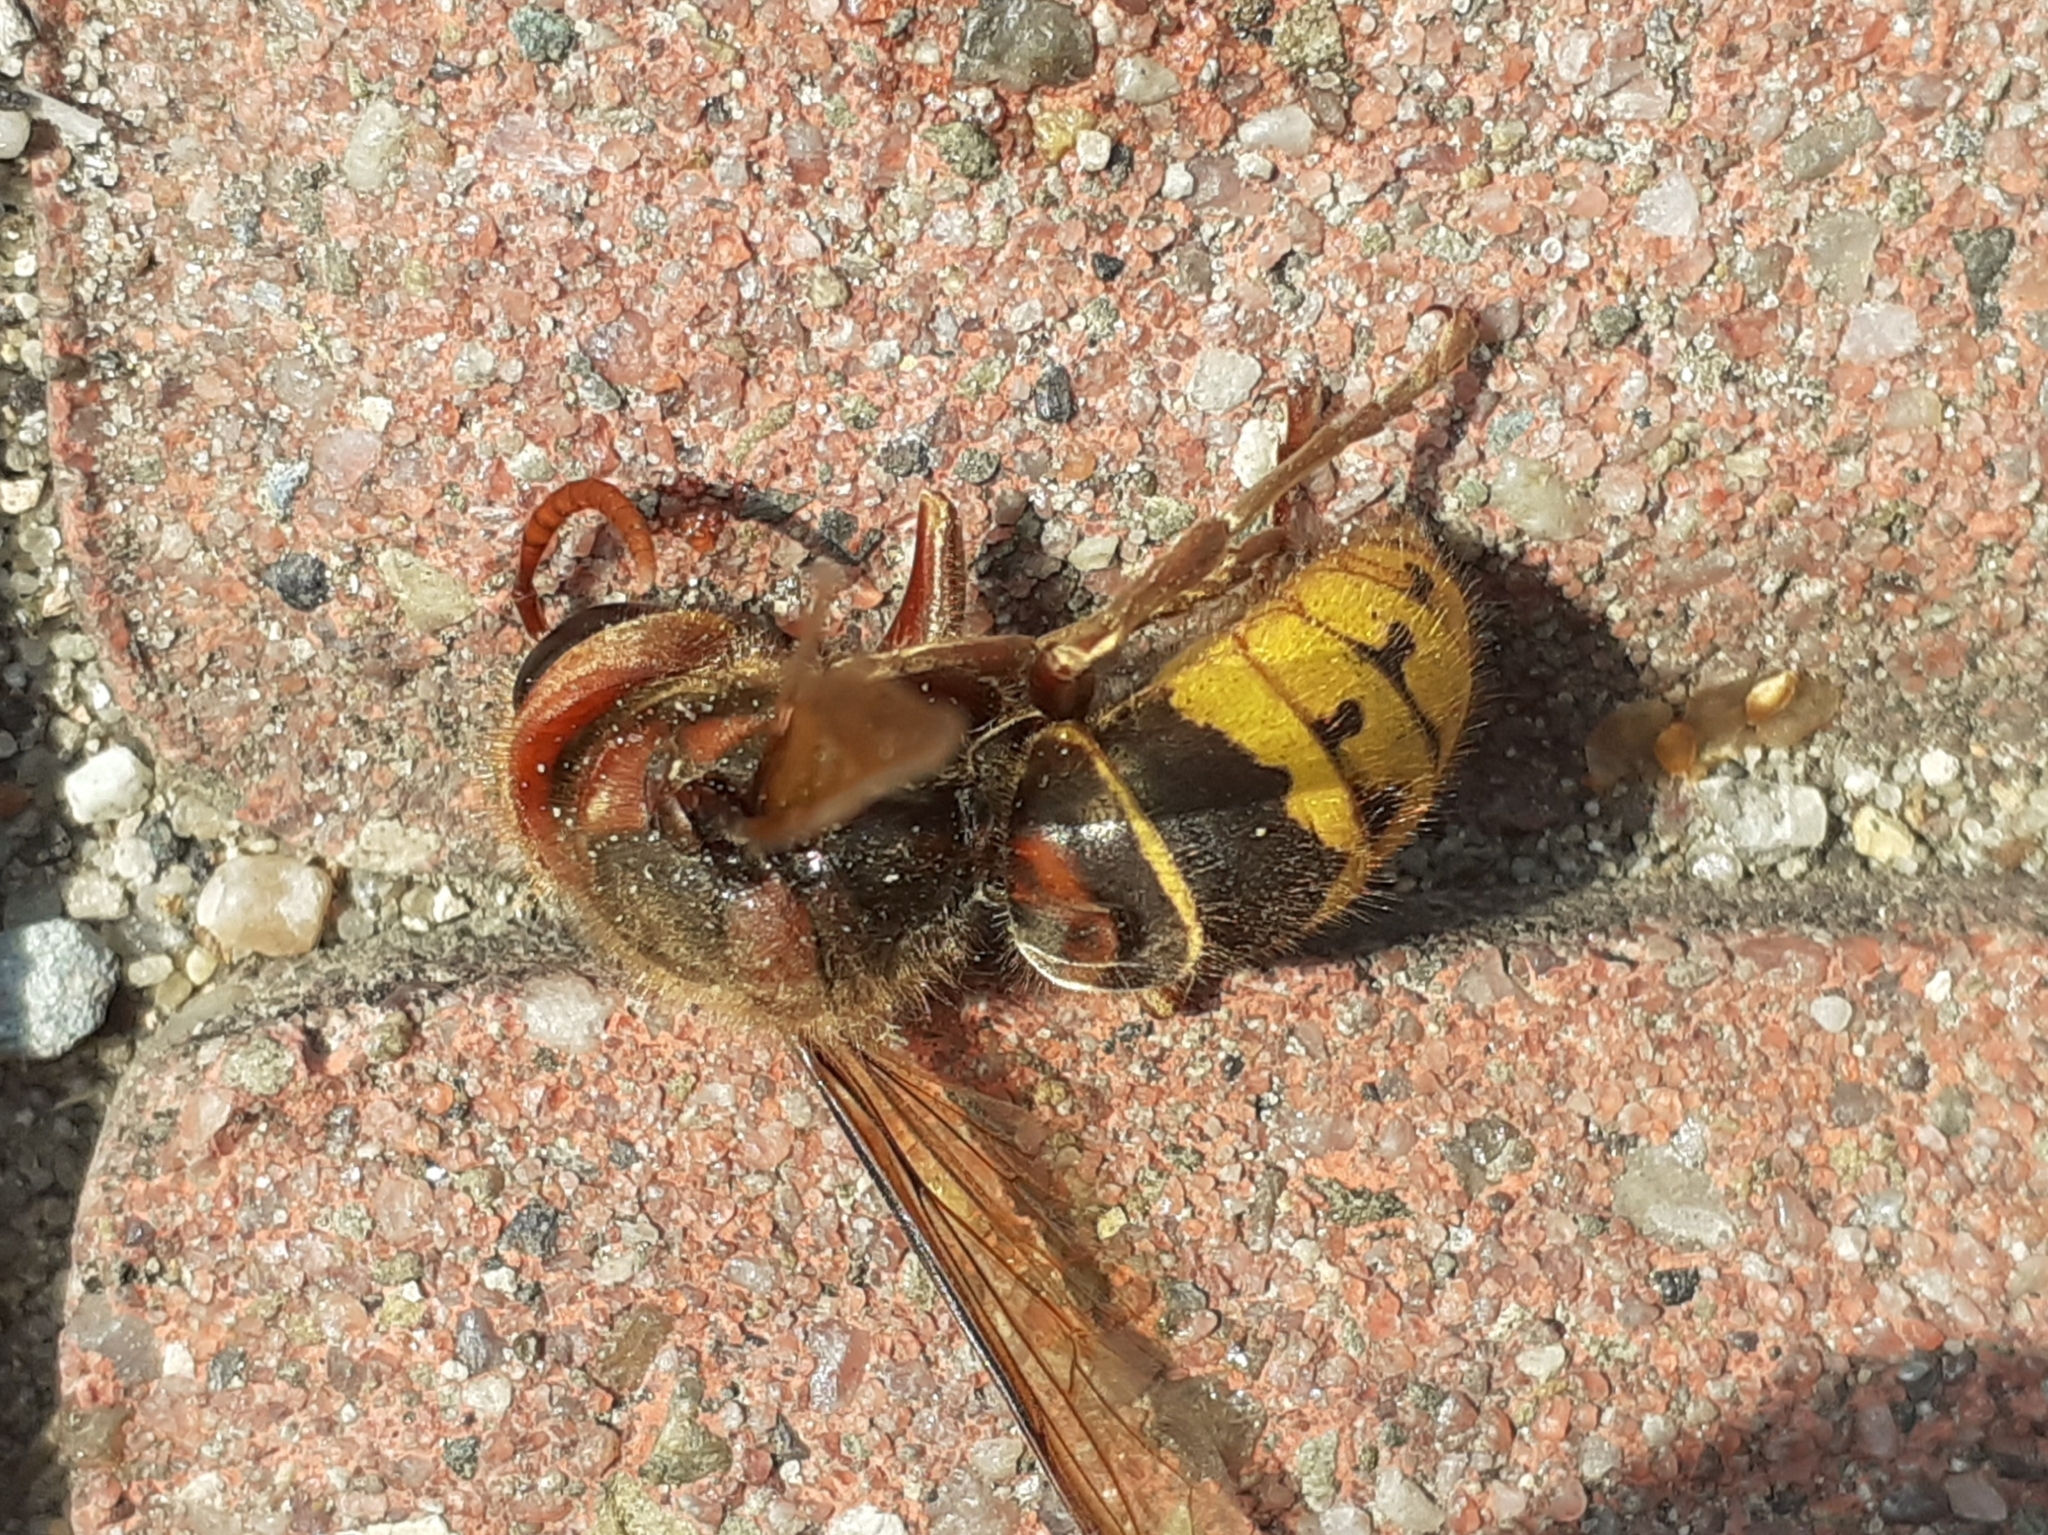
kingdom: Animalia
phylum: Arthropoda
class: Insecta
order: Hymenoptera
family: Vespidae
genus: Vespa
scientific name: Vespa crabro
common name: Hornet
